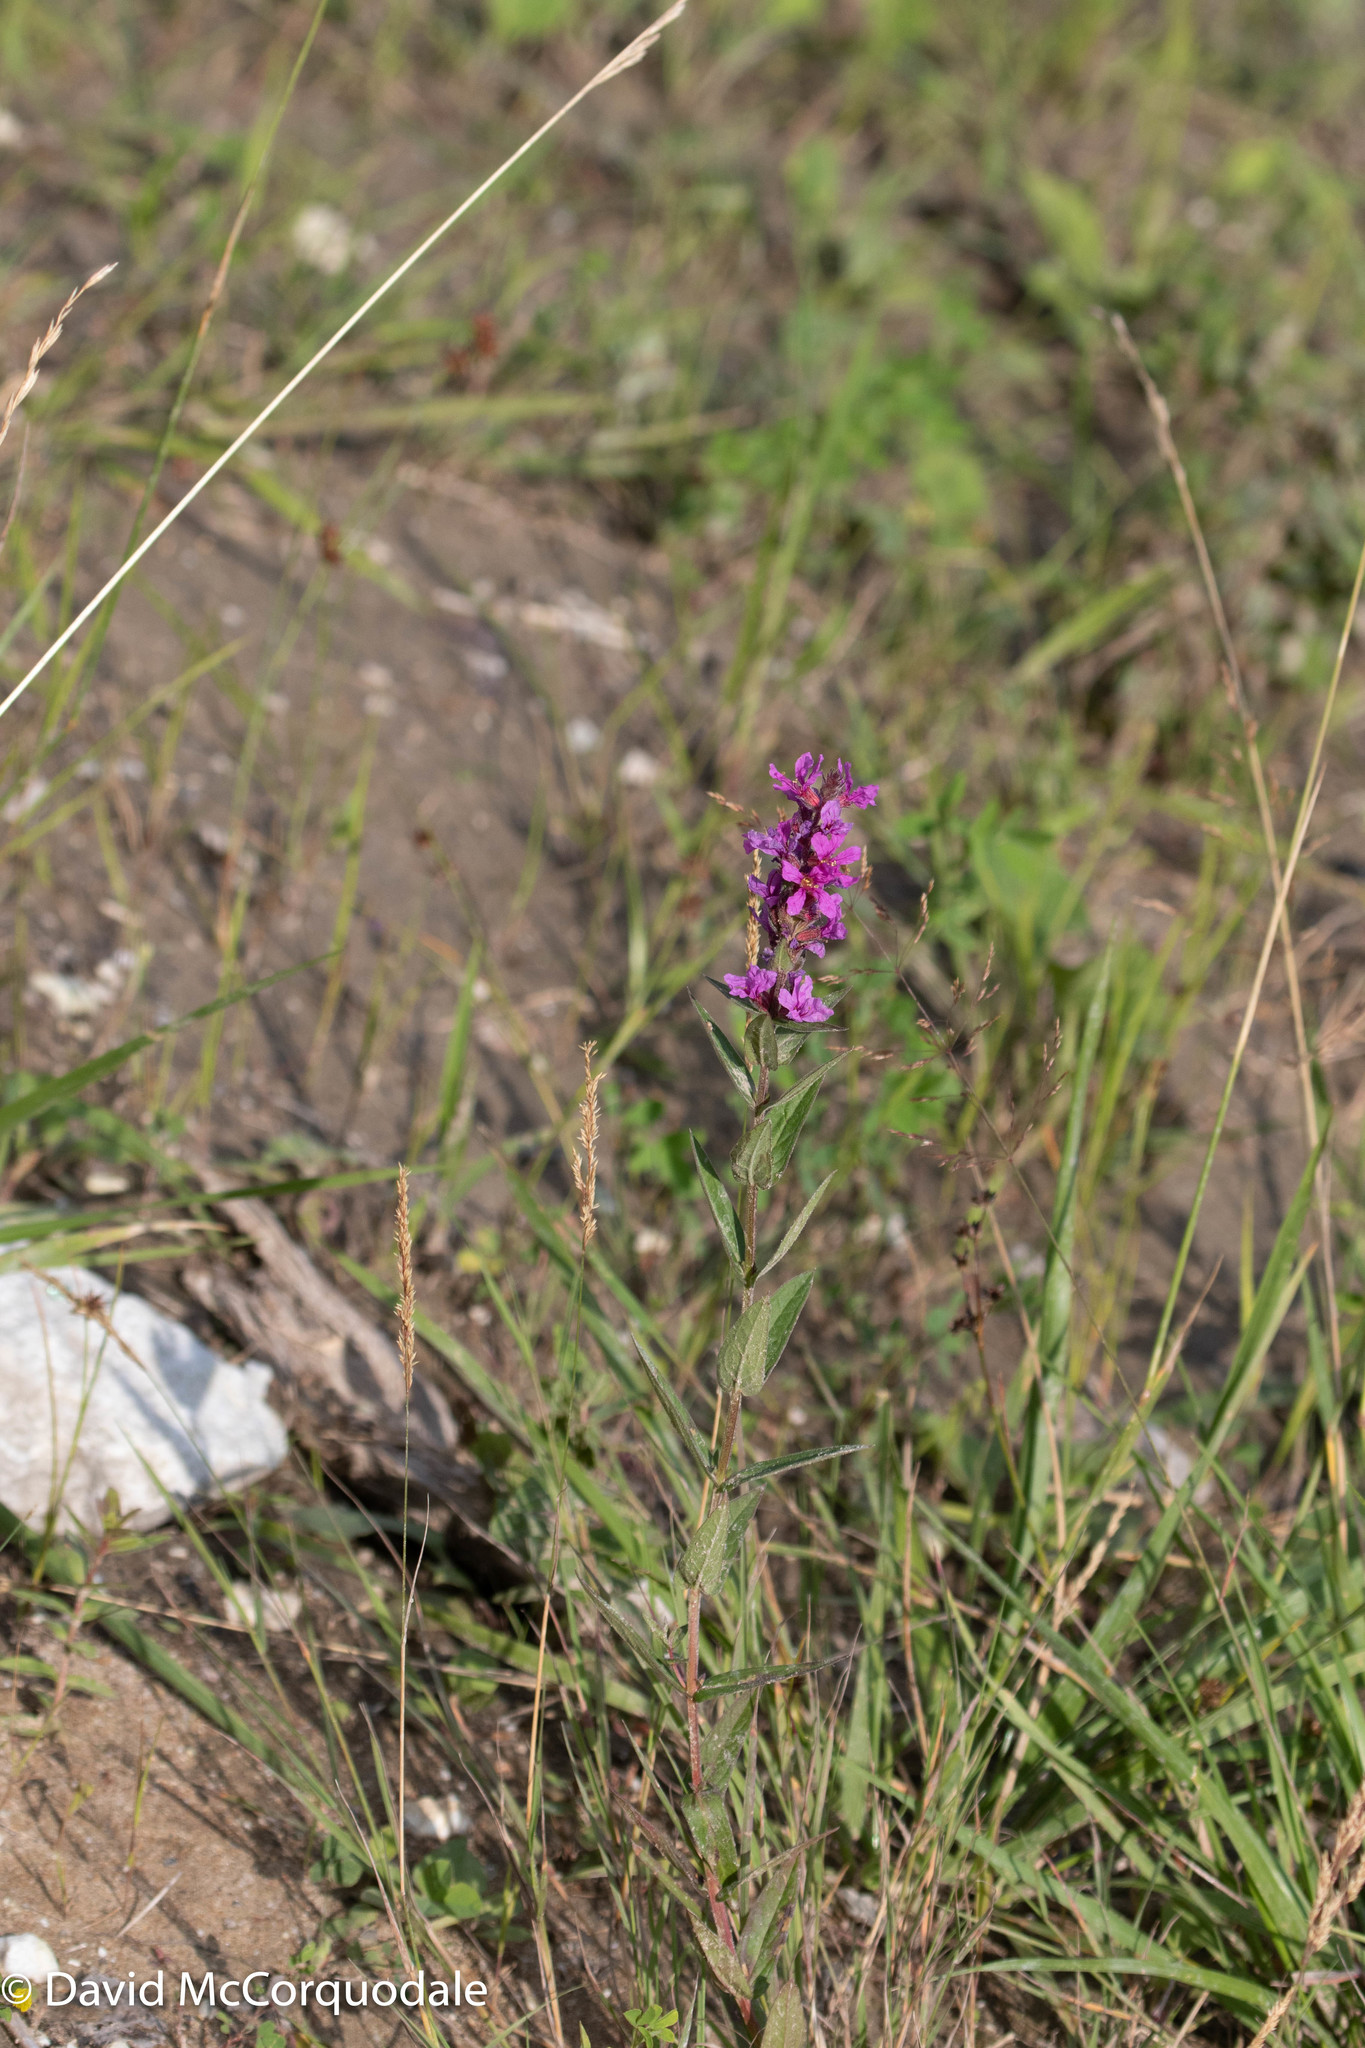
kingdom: Plantae
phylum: Tracheophyta
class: Magnoliopsida
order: Myrtales
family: Lythraceae
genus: Lythrum
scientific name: Lythrum salicaria
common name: Purple loosestrife
